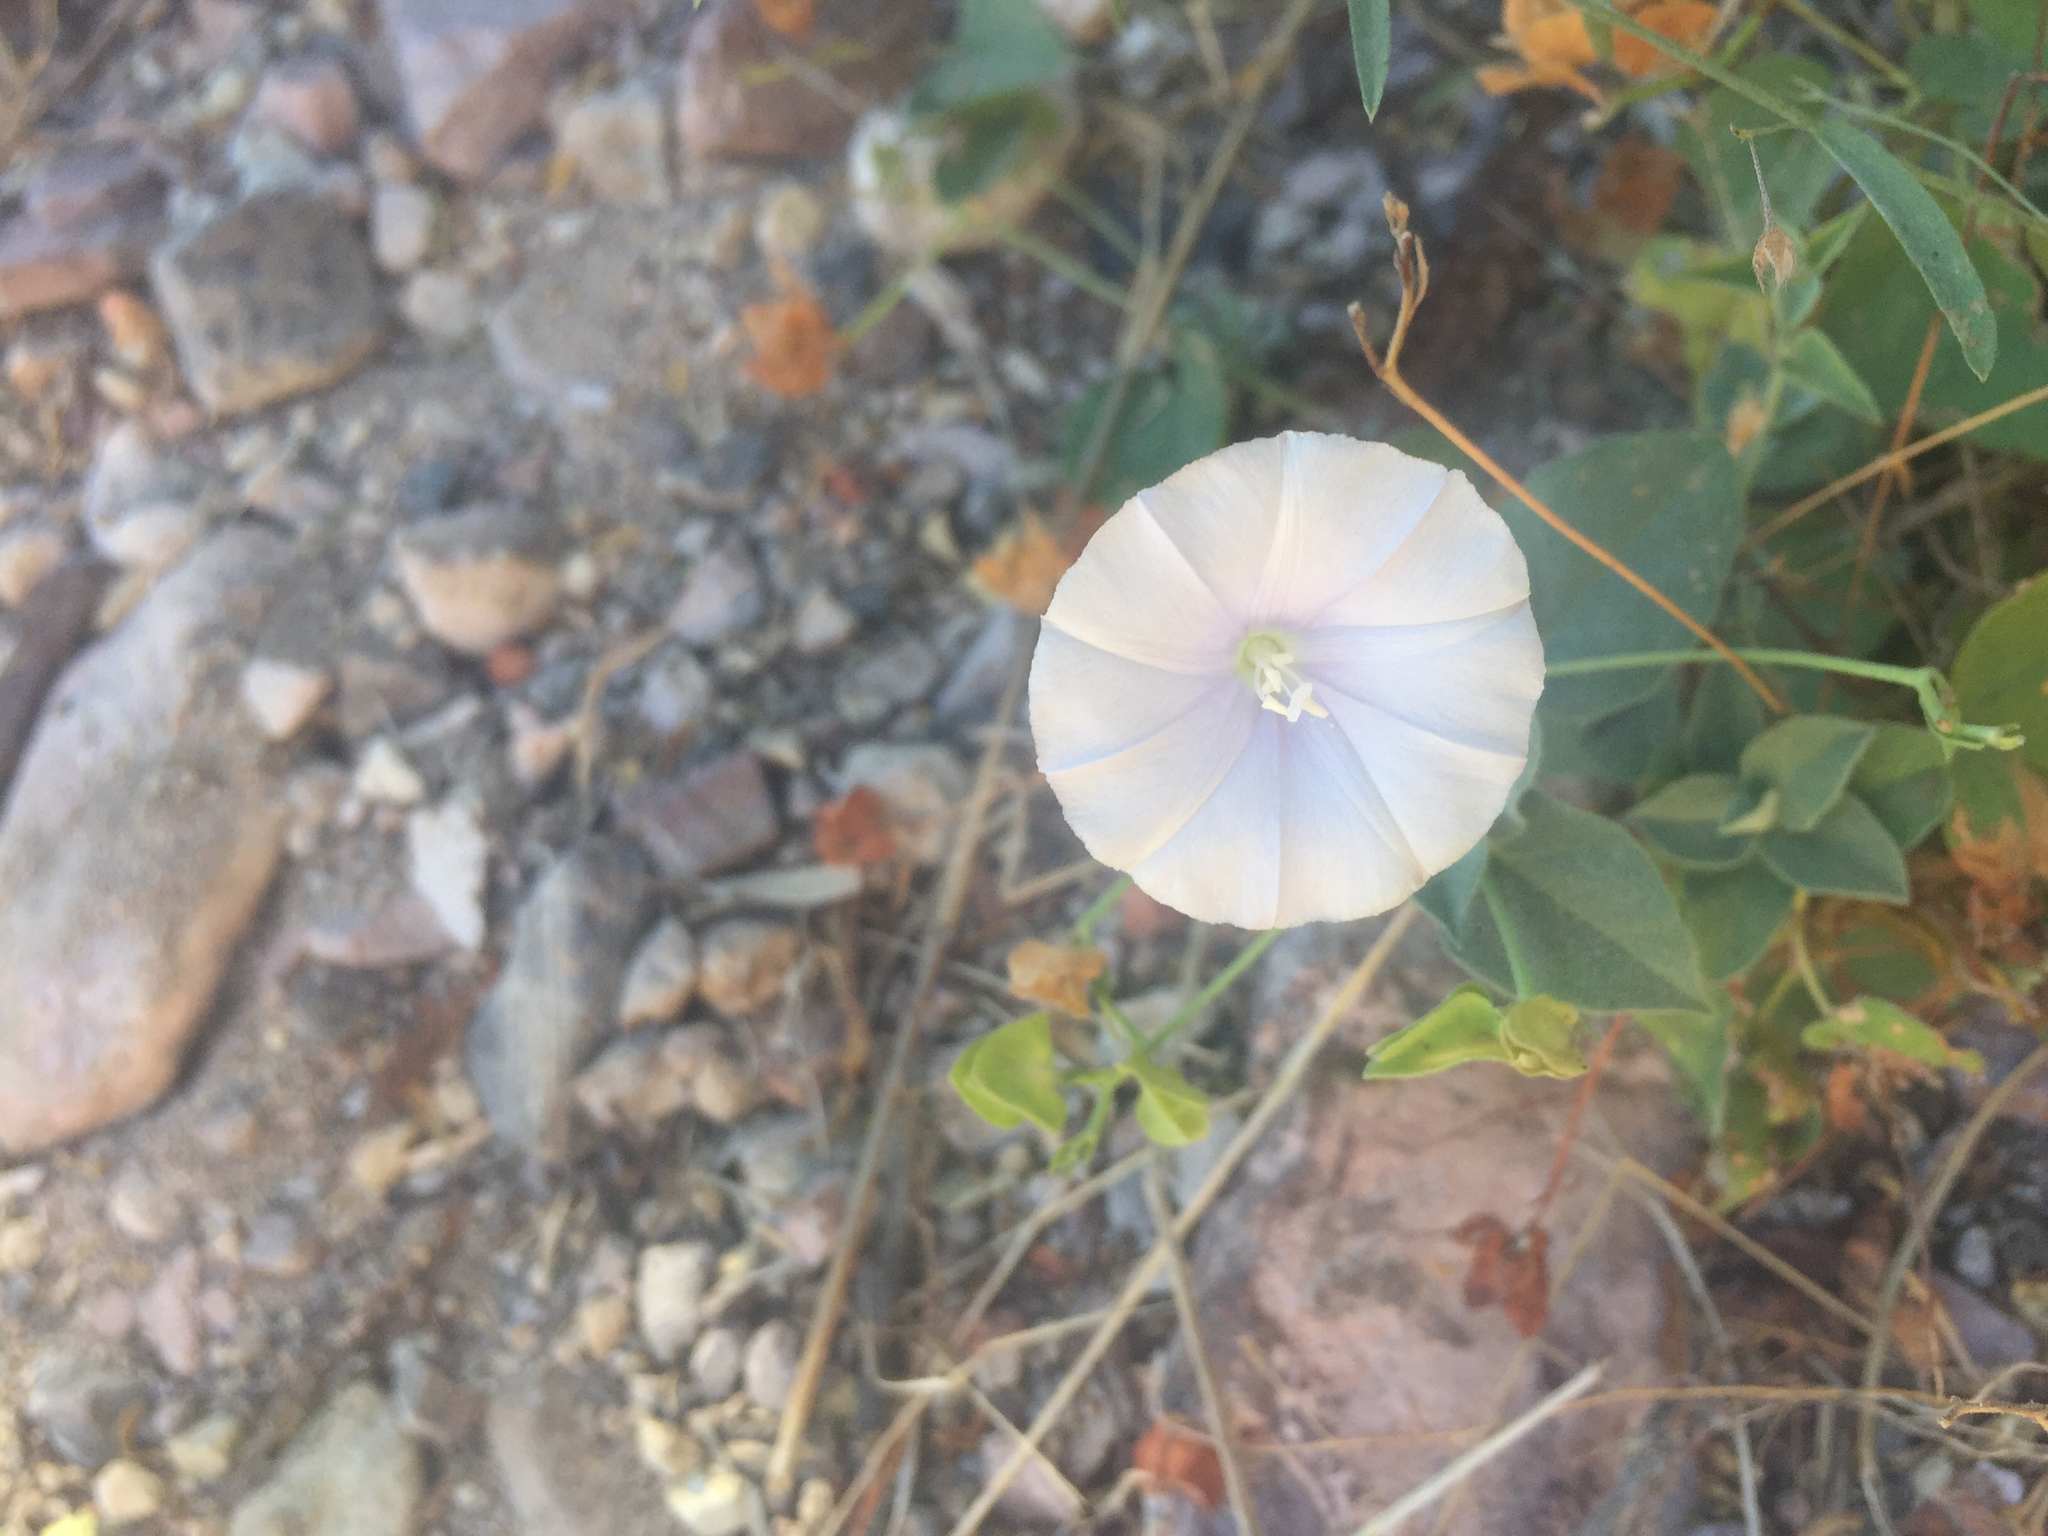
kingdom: Plantae
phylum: Tracheophyta
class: Magnoliopsida
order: Solanales
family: Convolvulaceae
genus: Jacquemontia
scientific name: Jacquemontia pringlei
